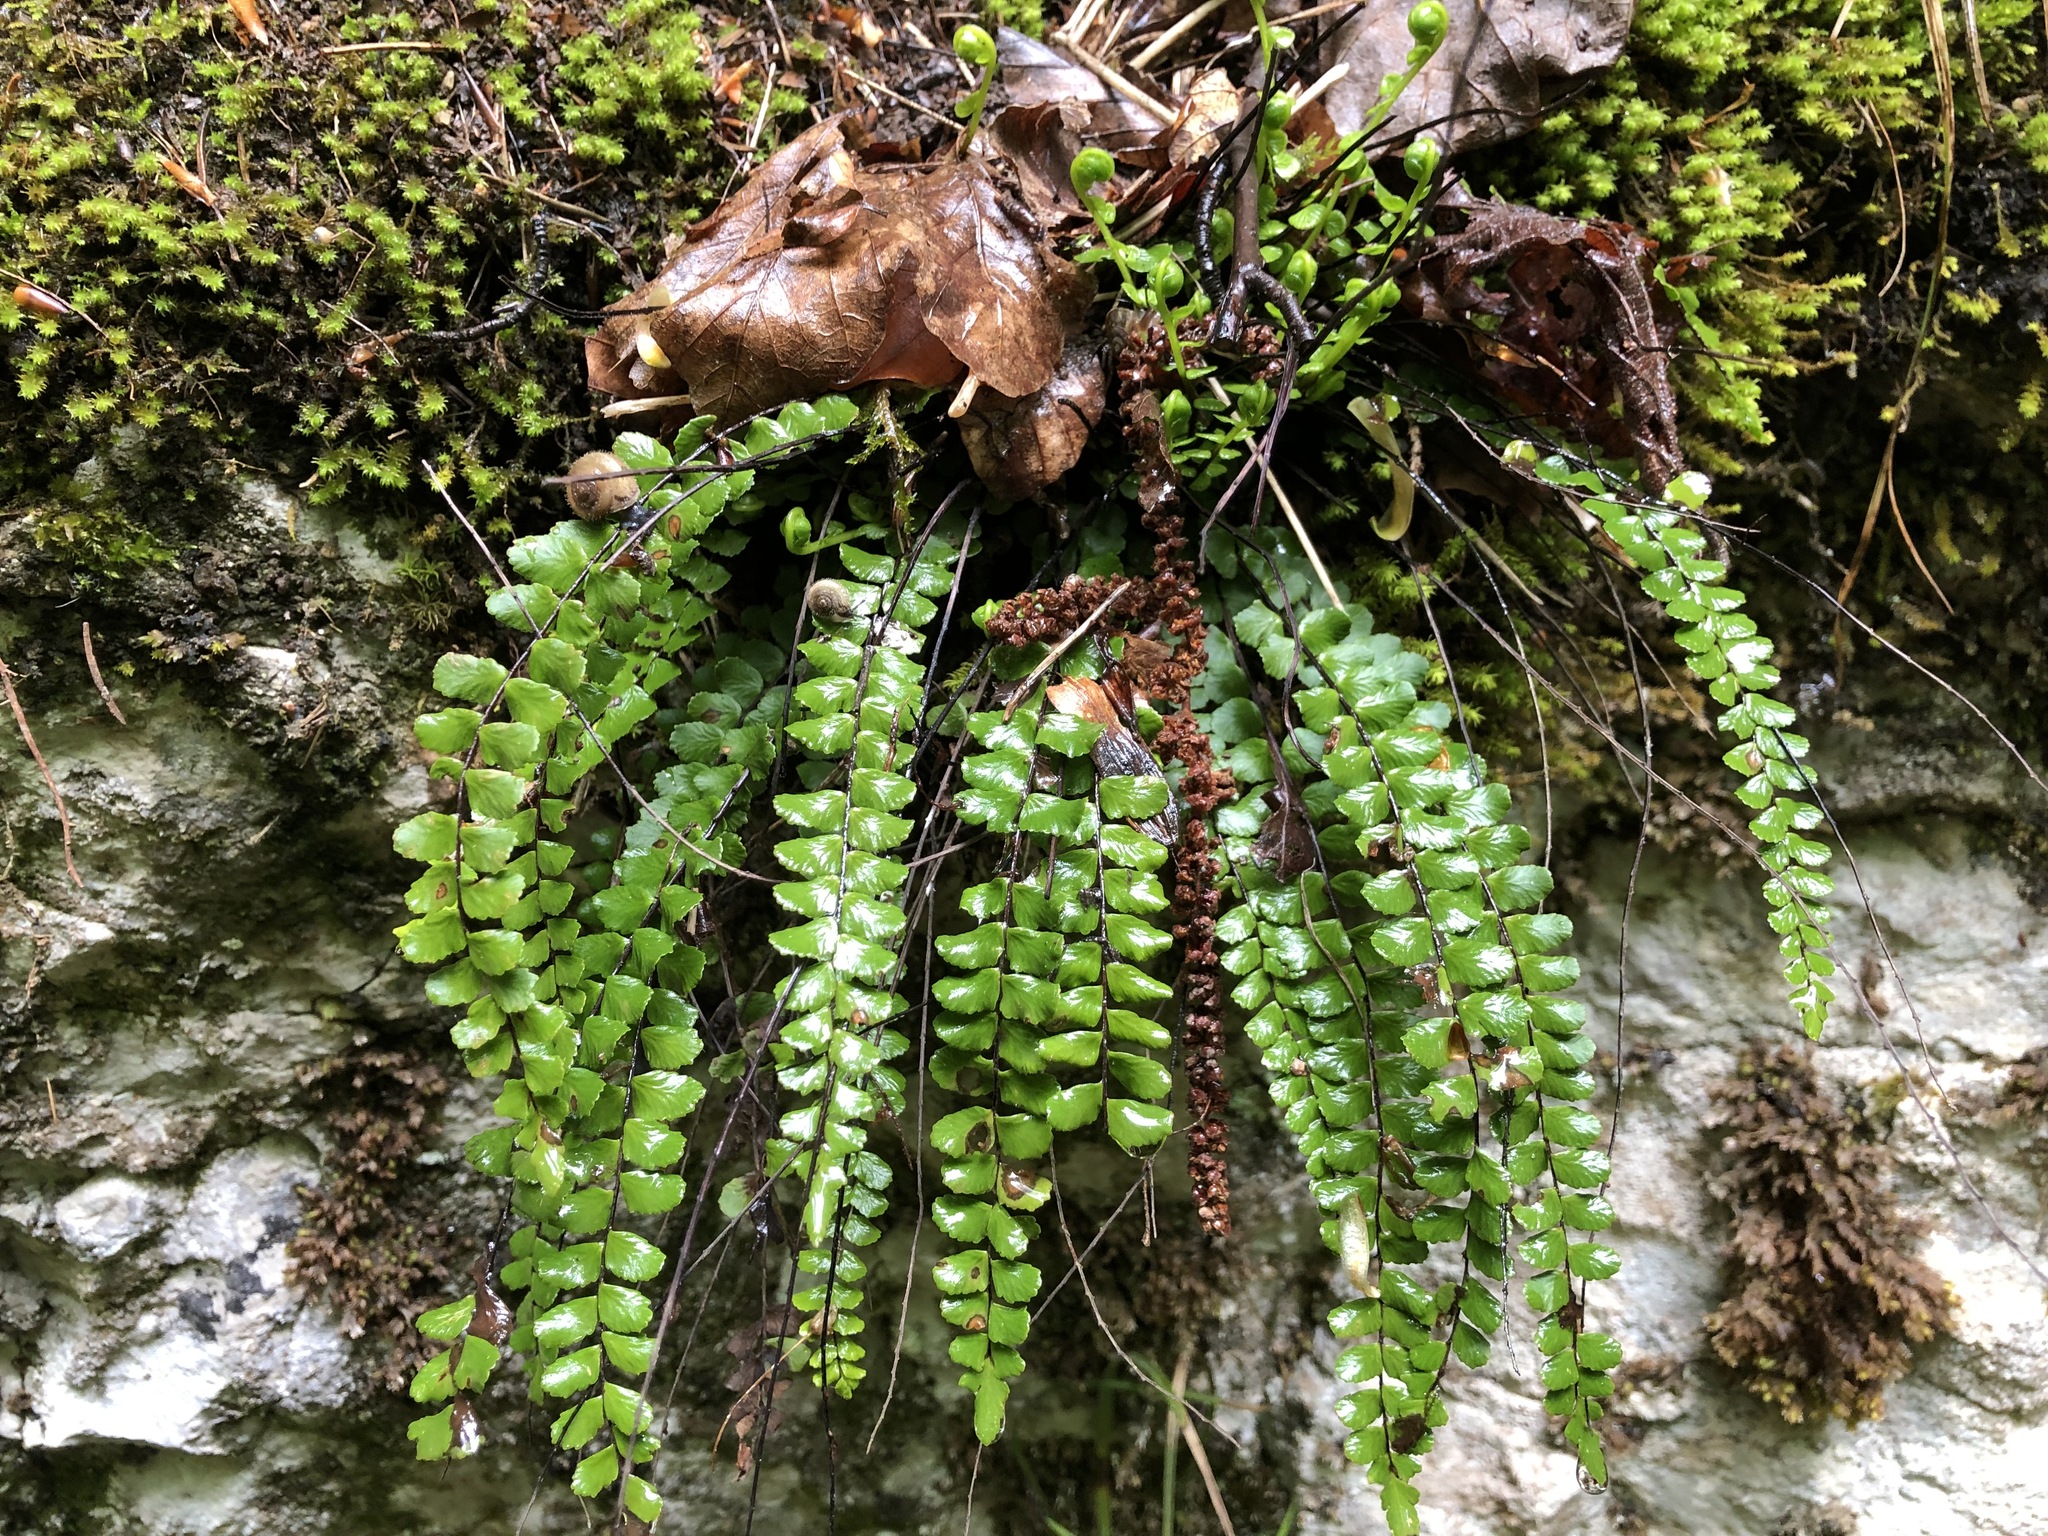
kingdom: Plantae
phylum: Tracheophyta
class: Polypodiopsida
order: Polypodiales
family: Aspleniaceae
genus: Asplenium
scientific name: Asplenium trichomanes
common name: Maidenhair spleenwort
